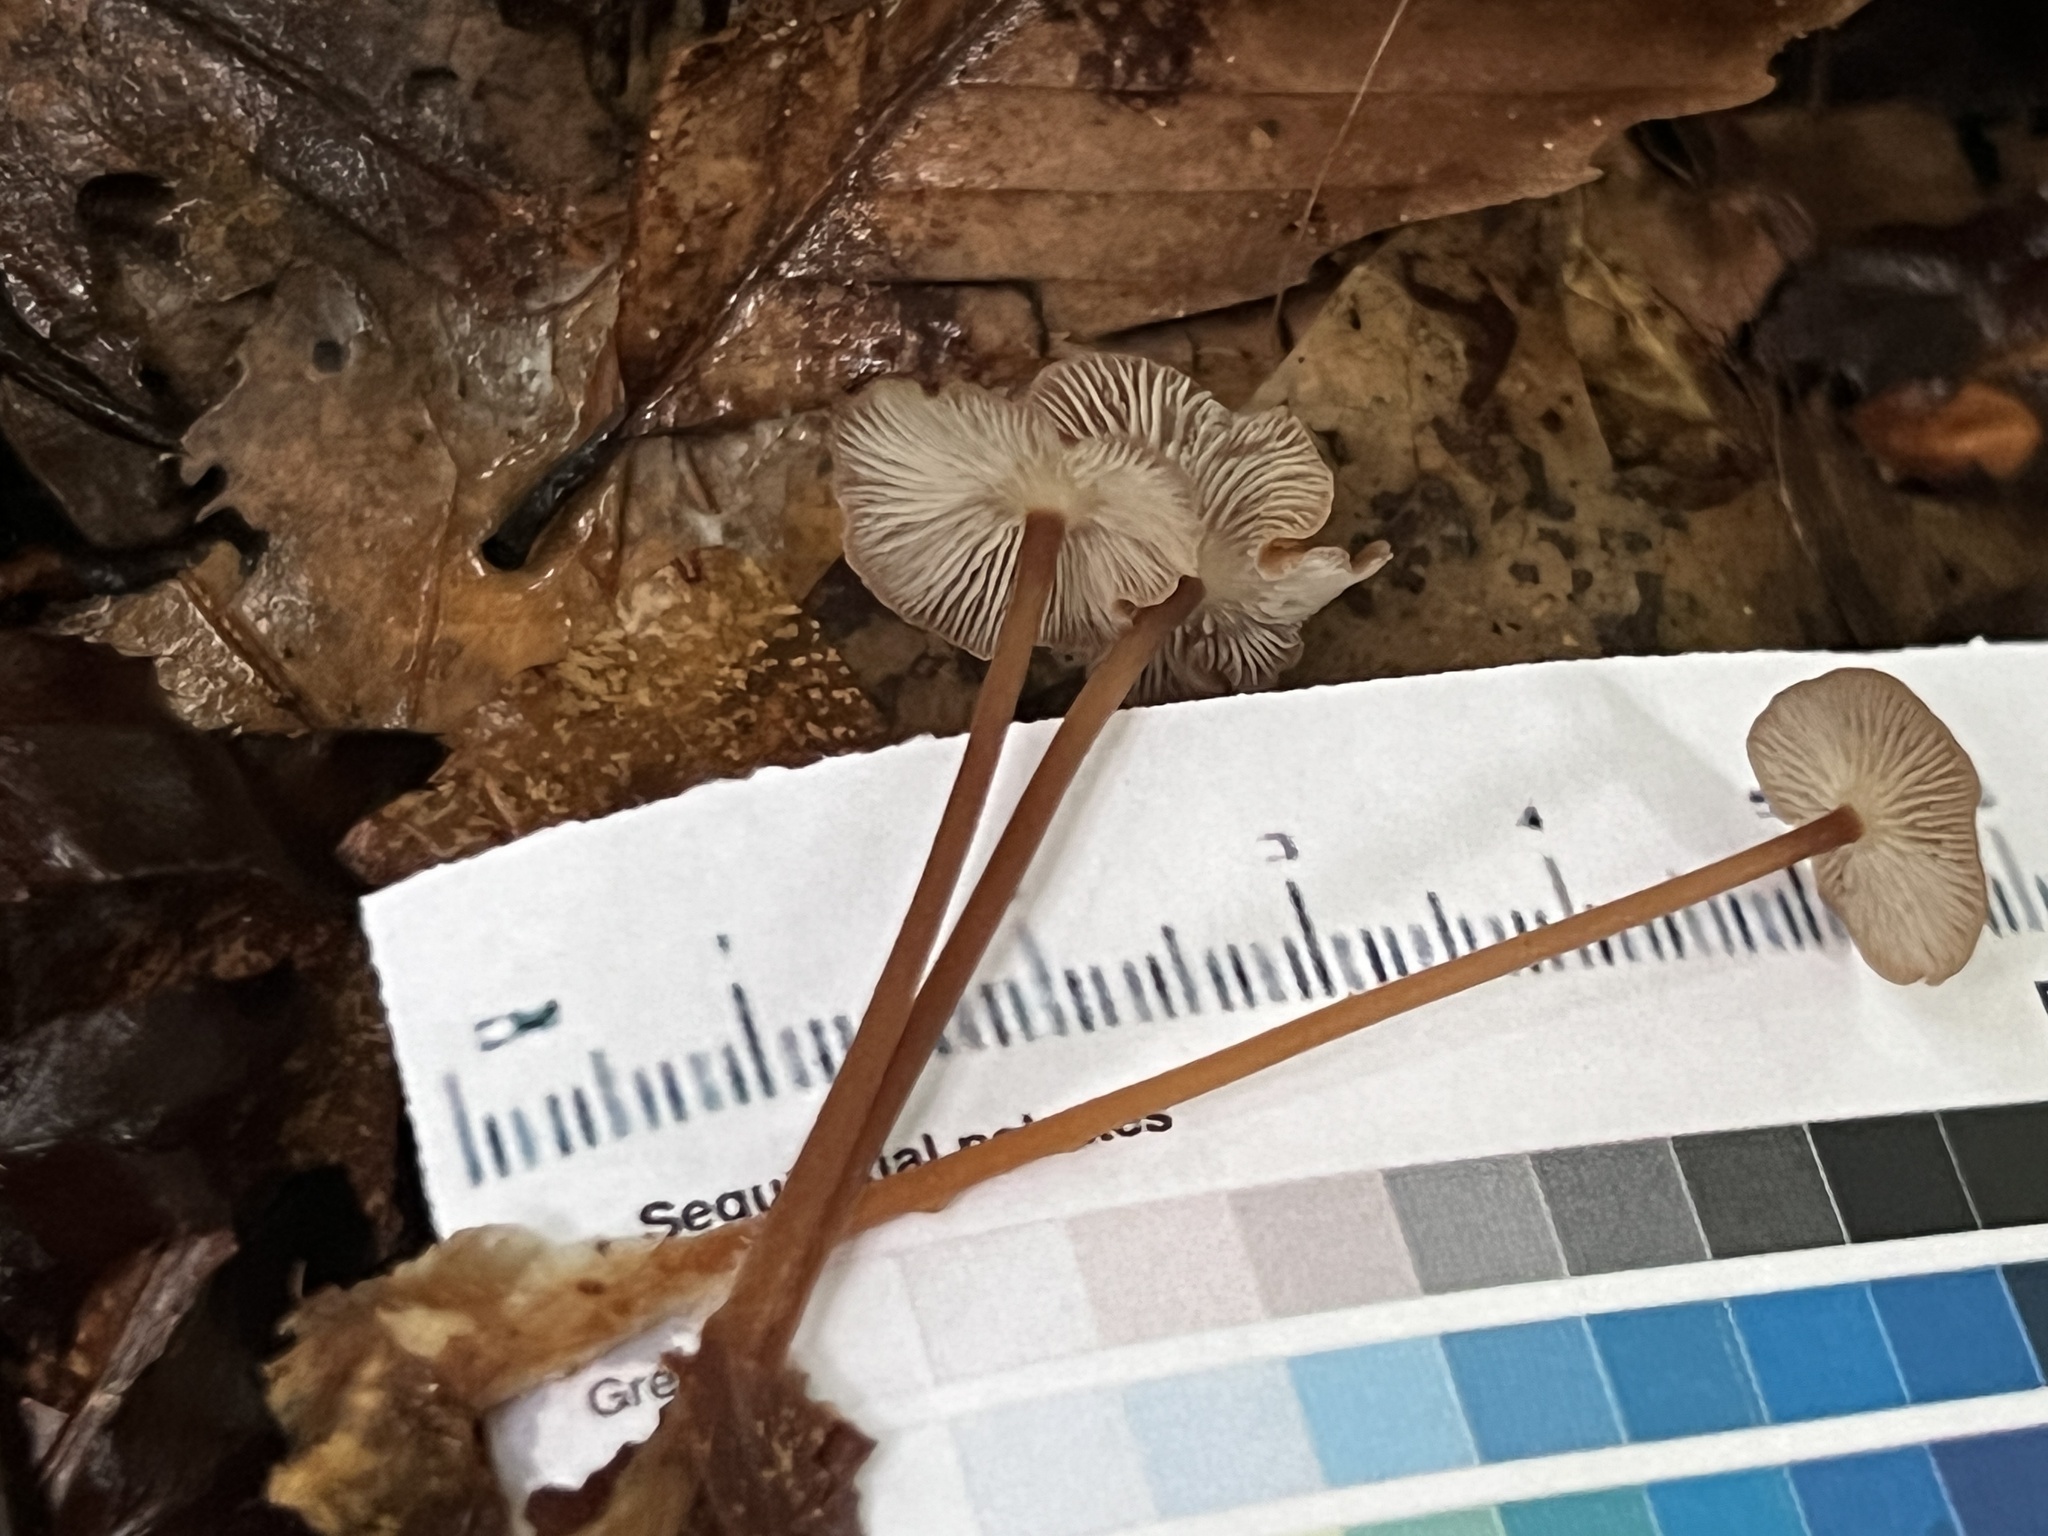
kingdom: Fungi
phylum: Basidiomycota
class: Agaricomycetes
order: Agaricales
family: Omphalotaceae
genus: Collybiopsis
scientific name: Collybiopsis biformis
